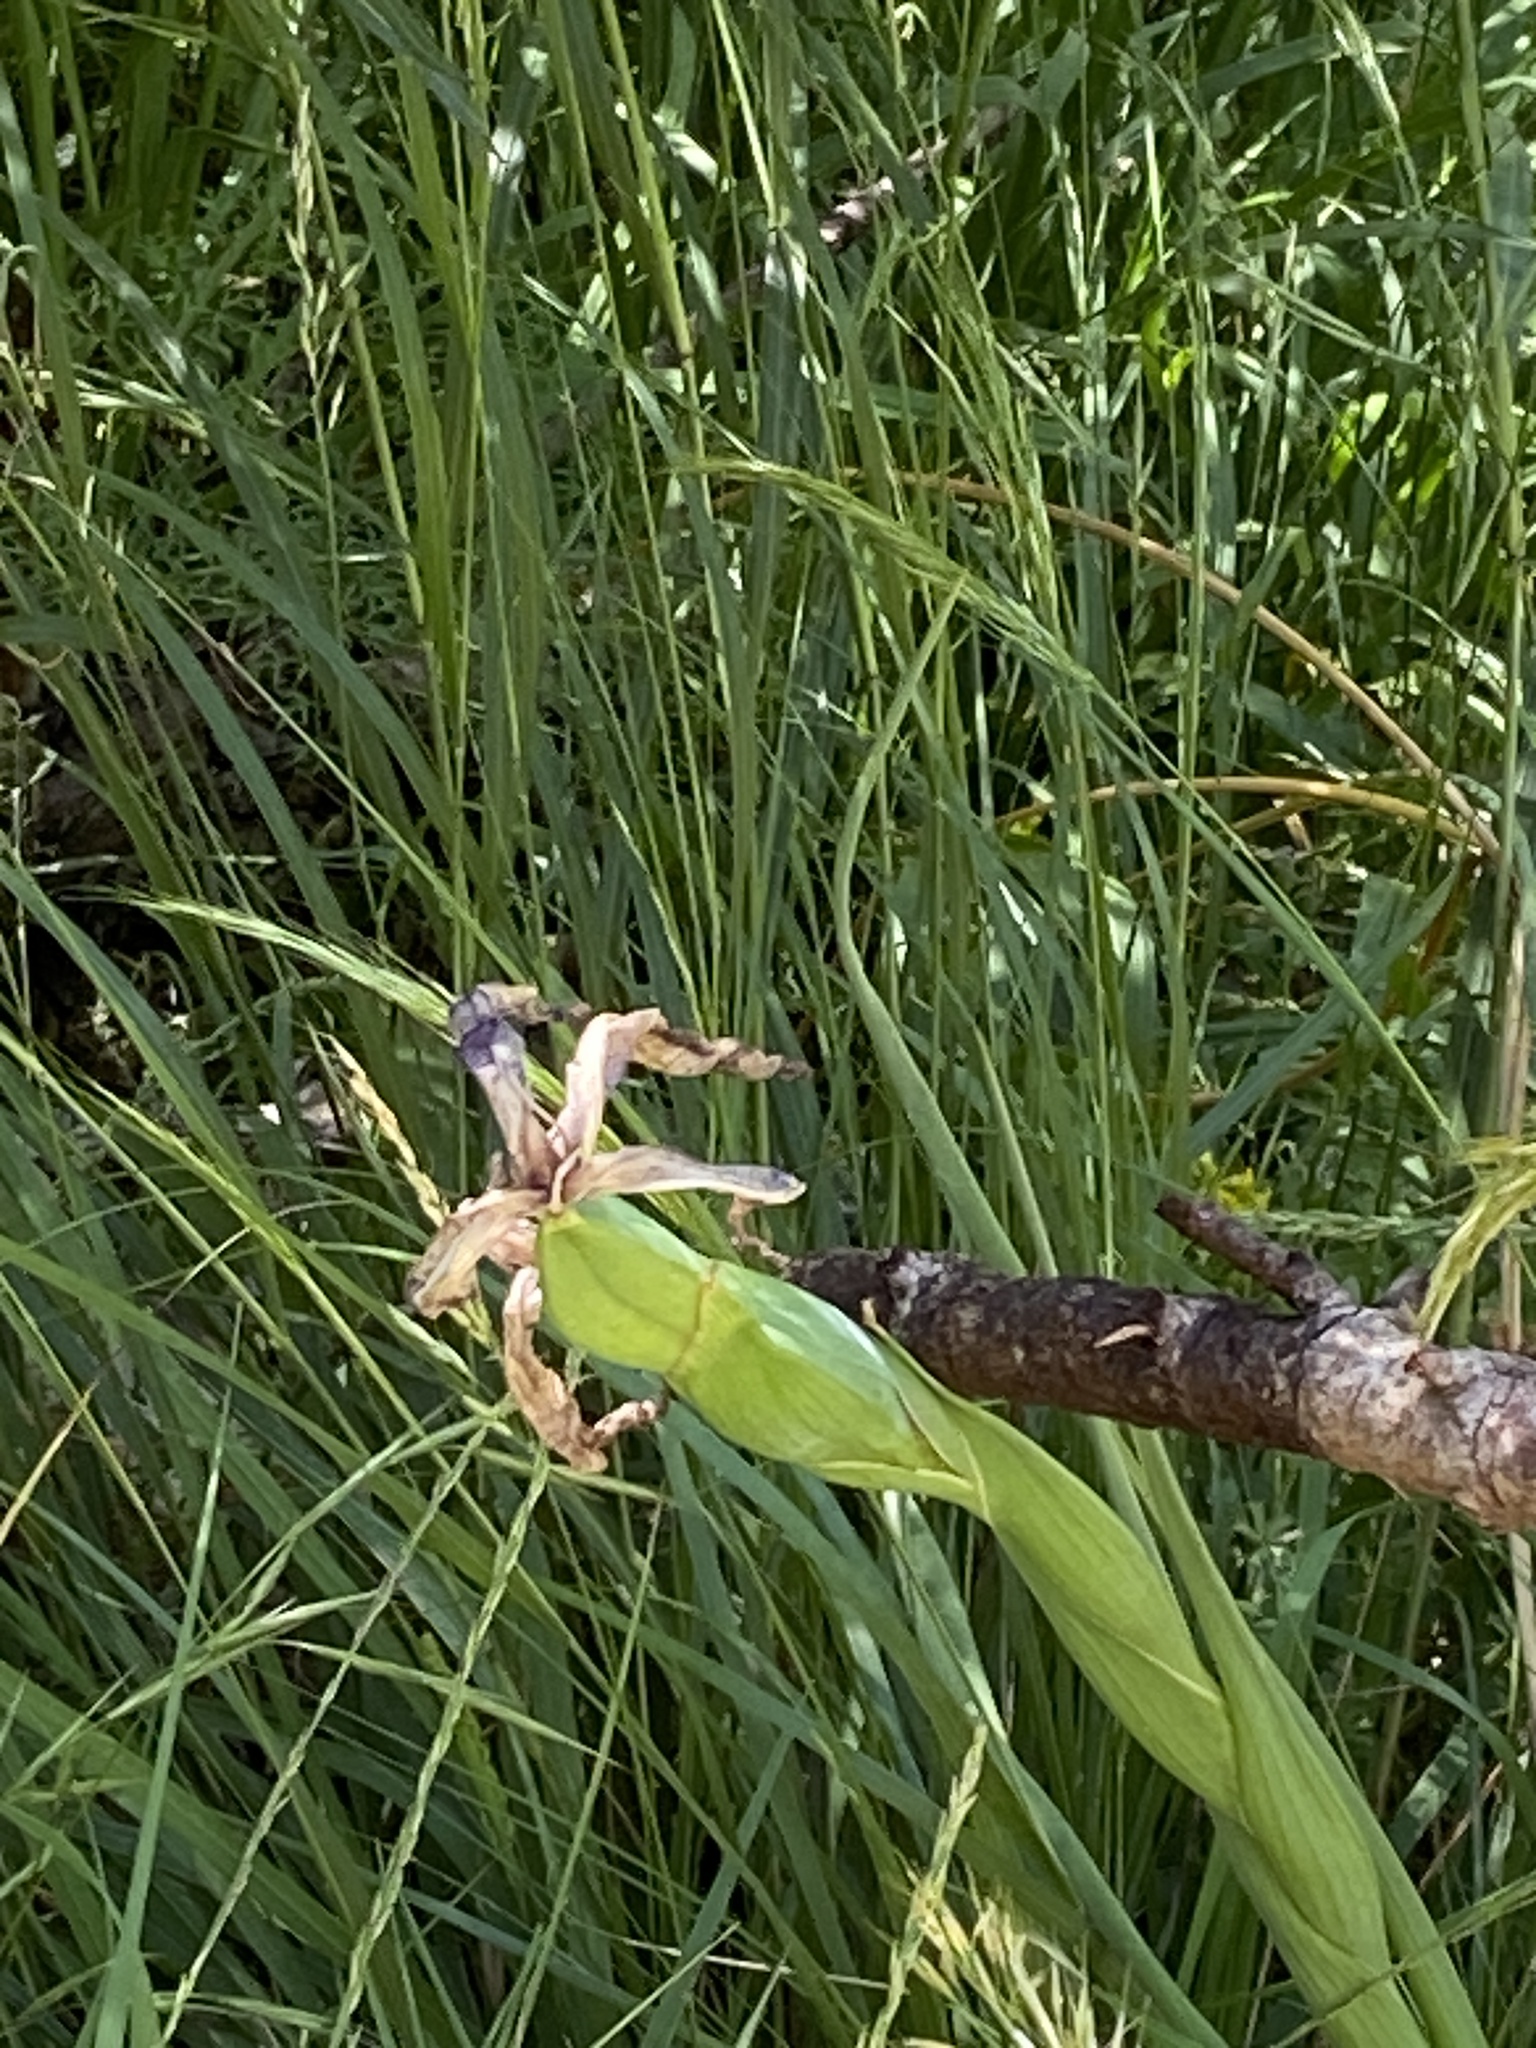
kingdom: Plantae
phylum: Tracheophyta
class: Liliopsida
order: Asparagales
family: Iridaceae
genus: Iris
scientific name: Iris
